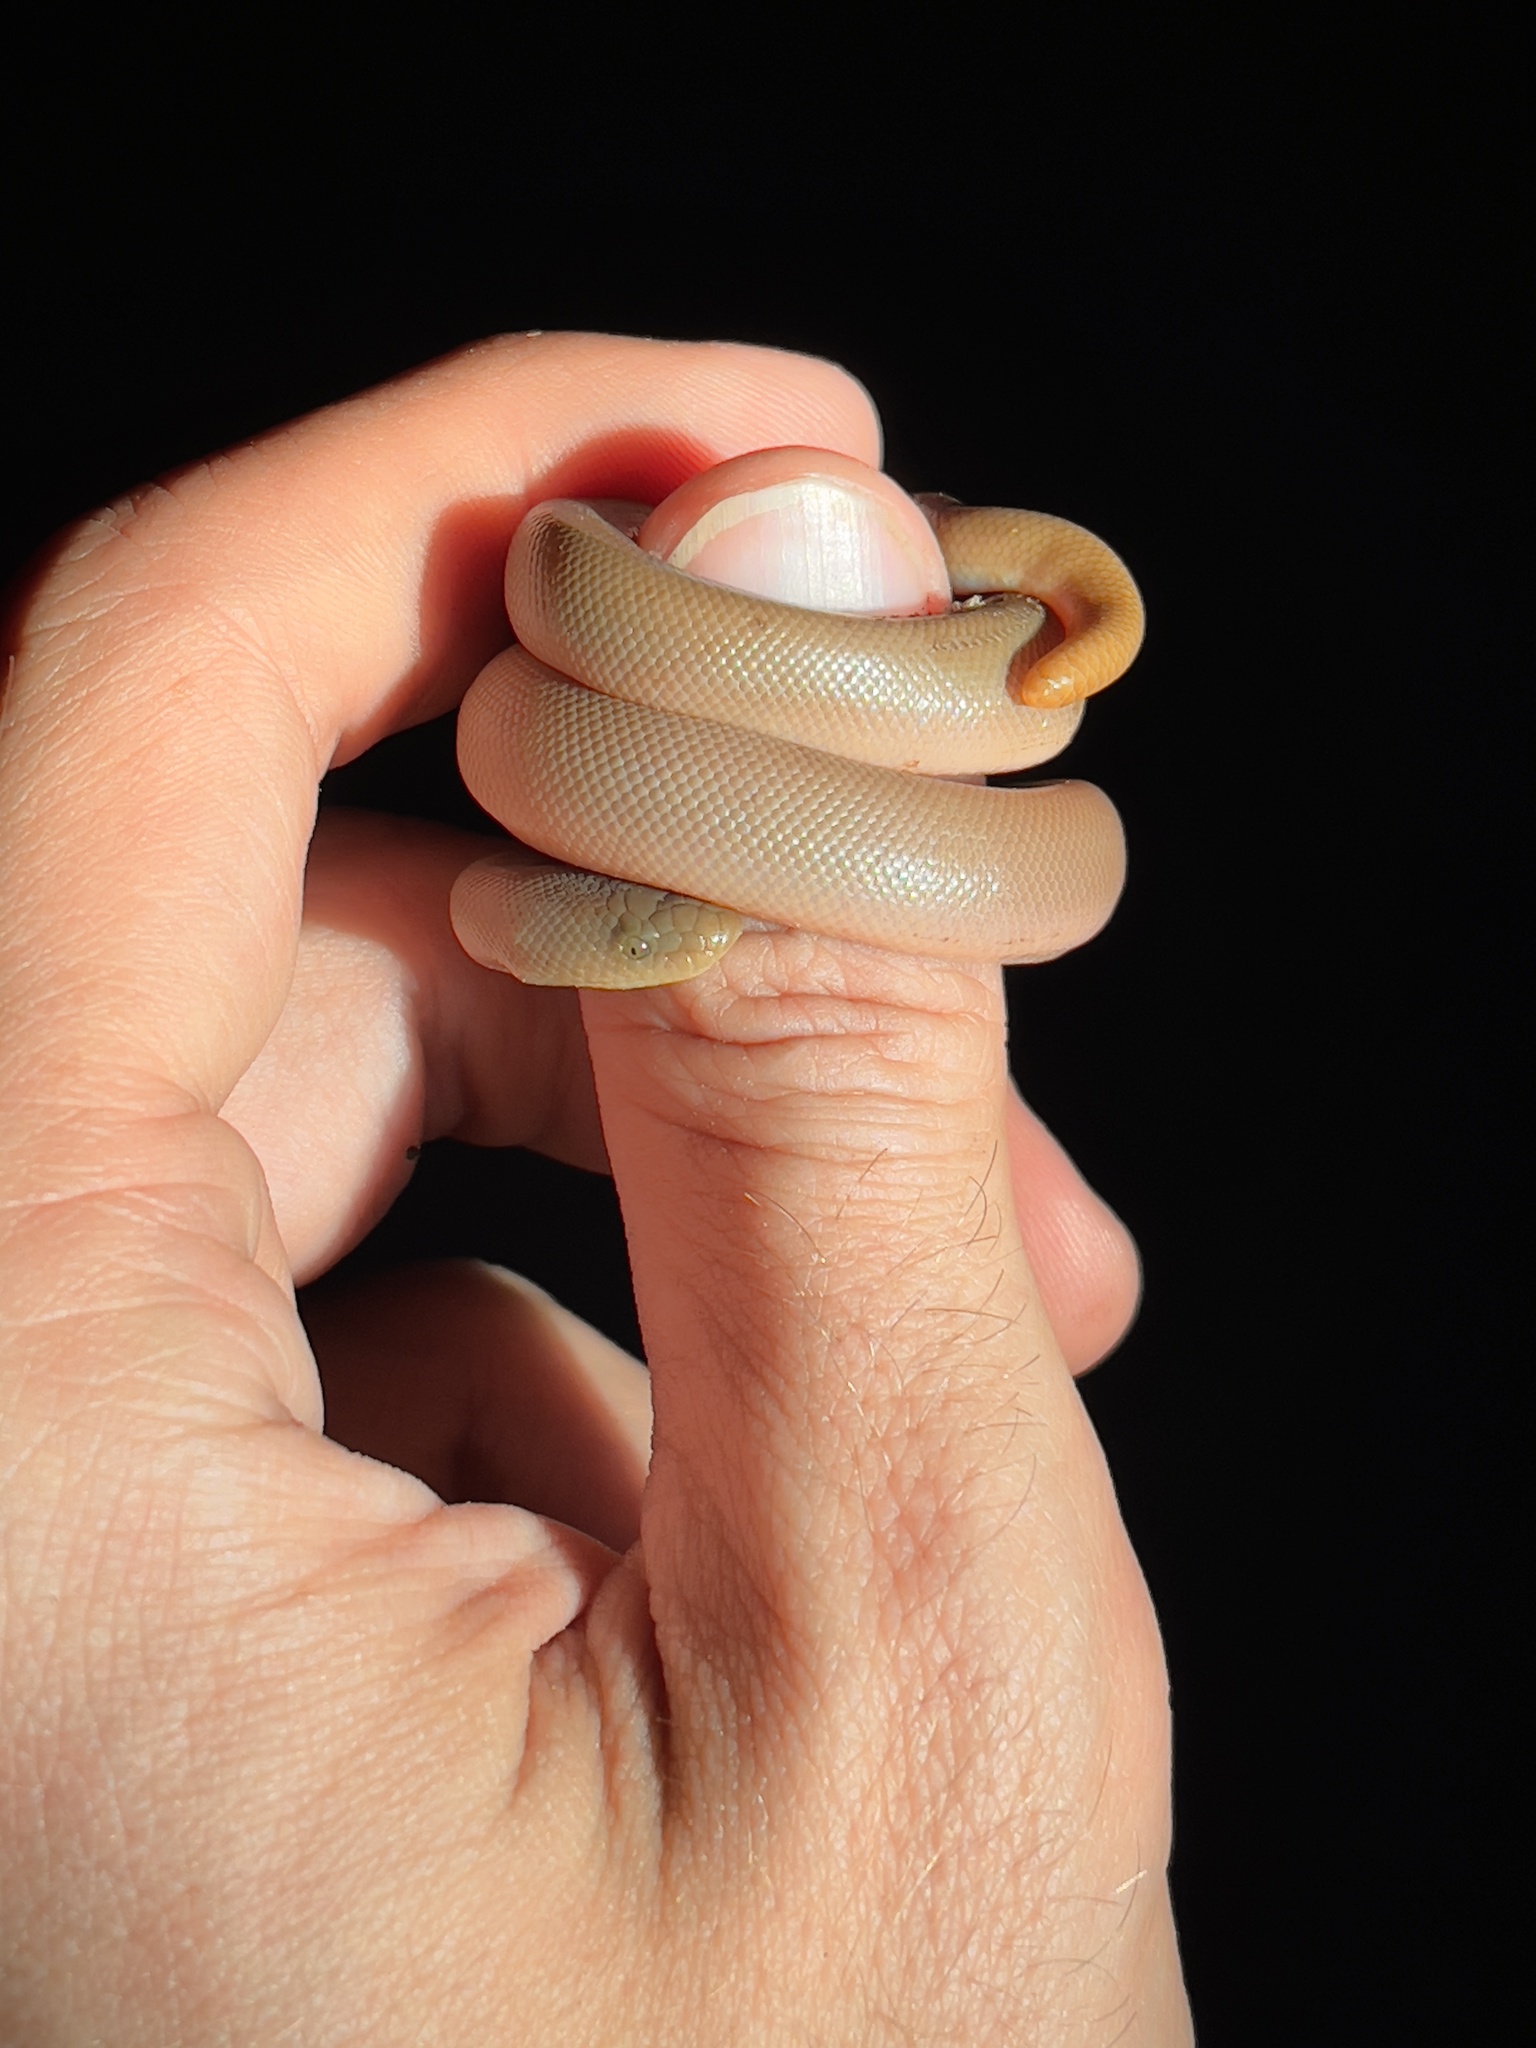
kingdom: Animalia
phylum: Chordata
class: Squamata
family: Boidae
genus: Charina
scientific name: Charina bottae
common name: Northern rubber boa
